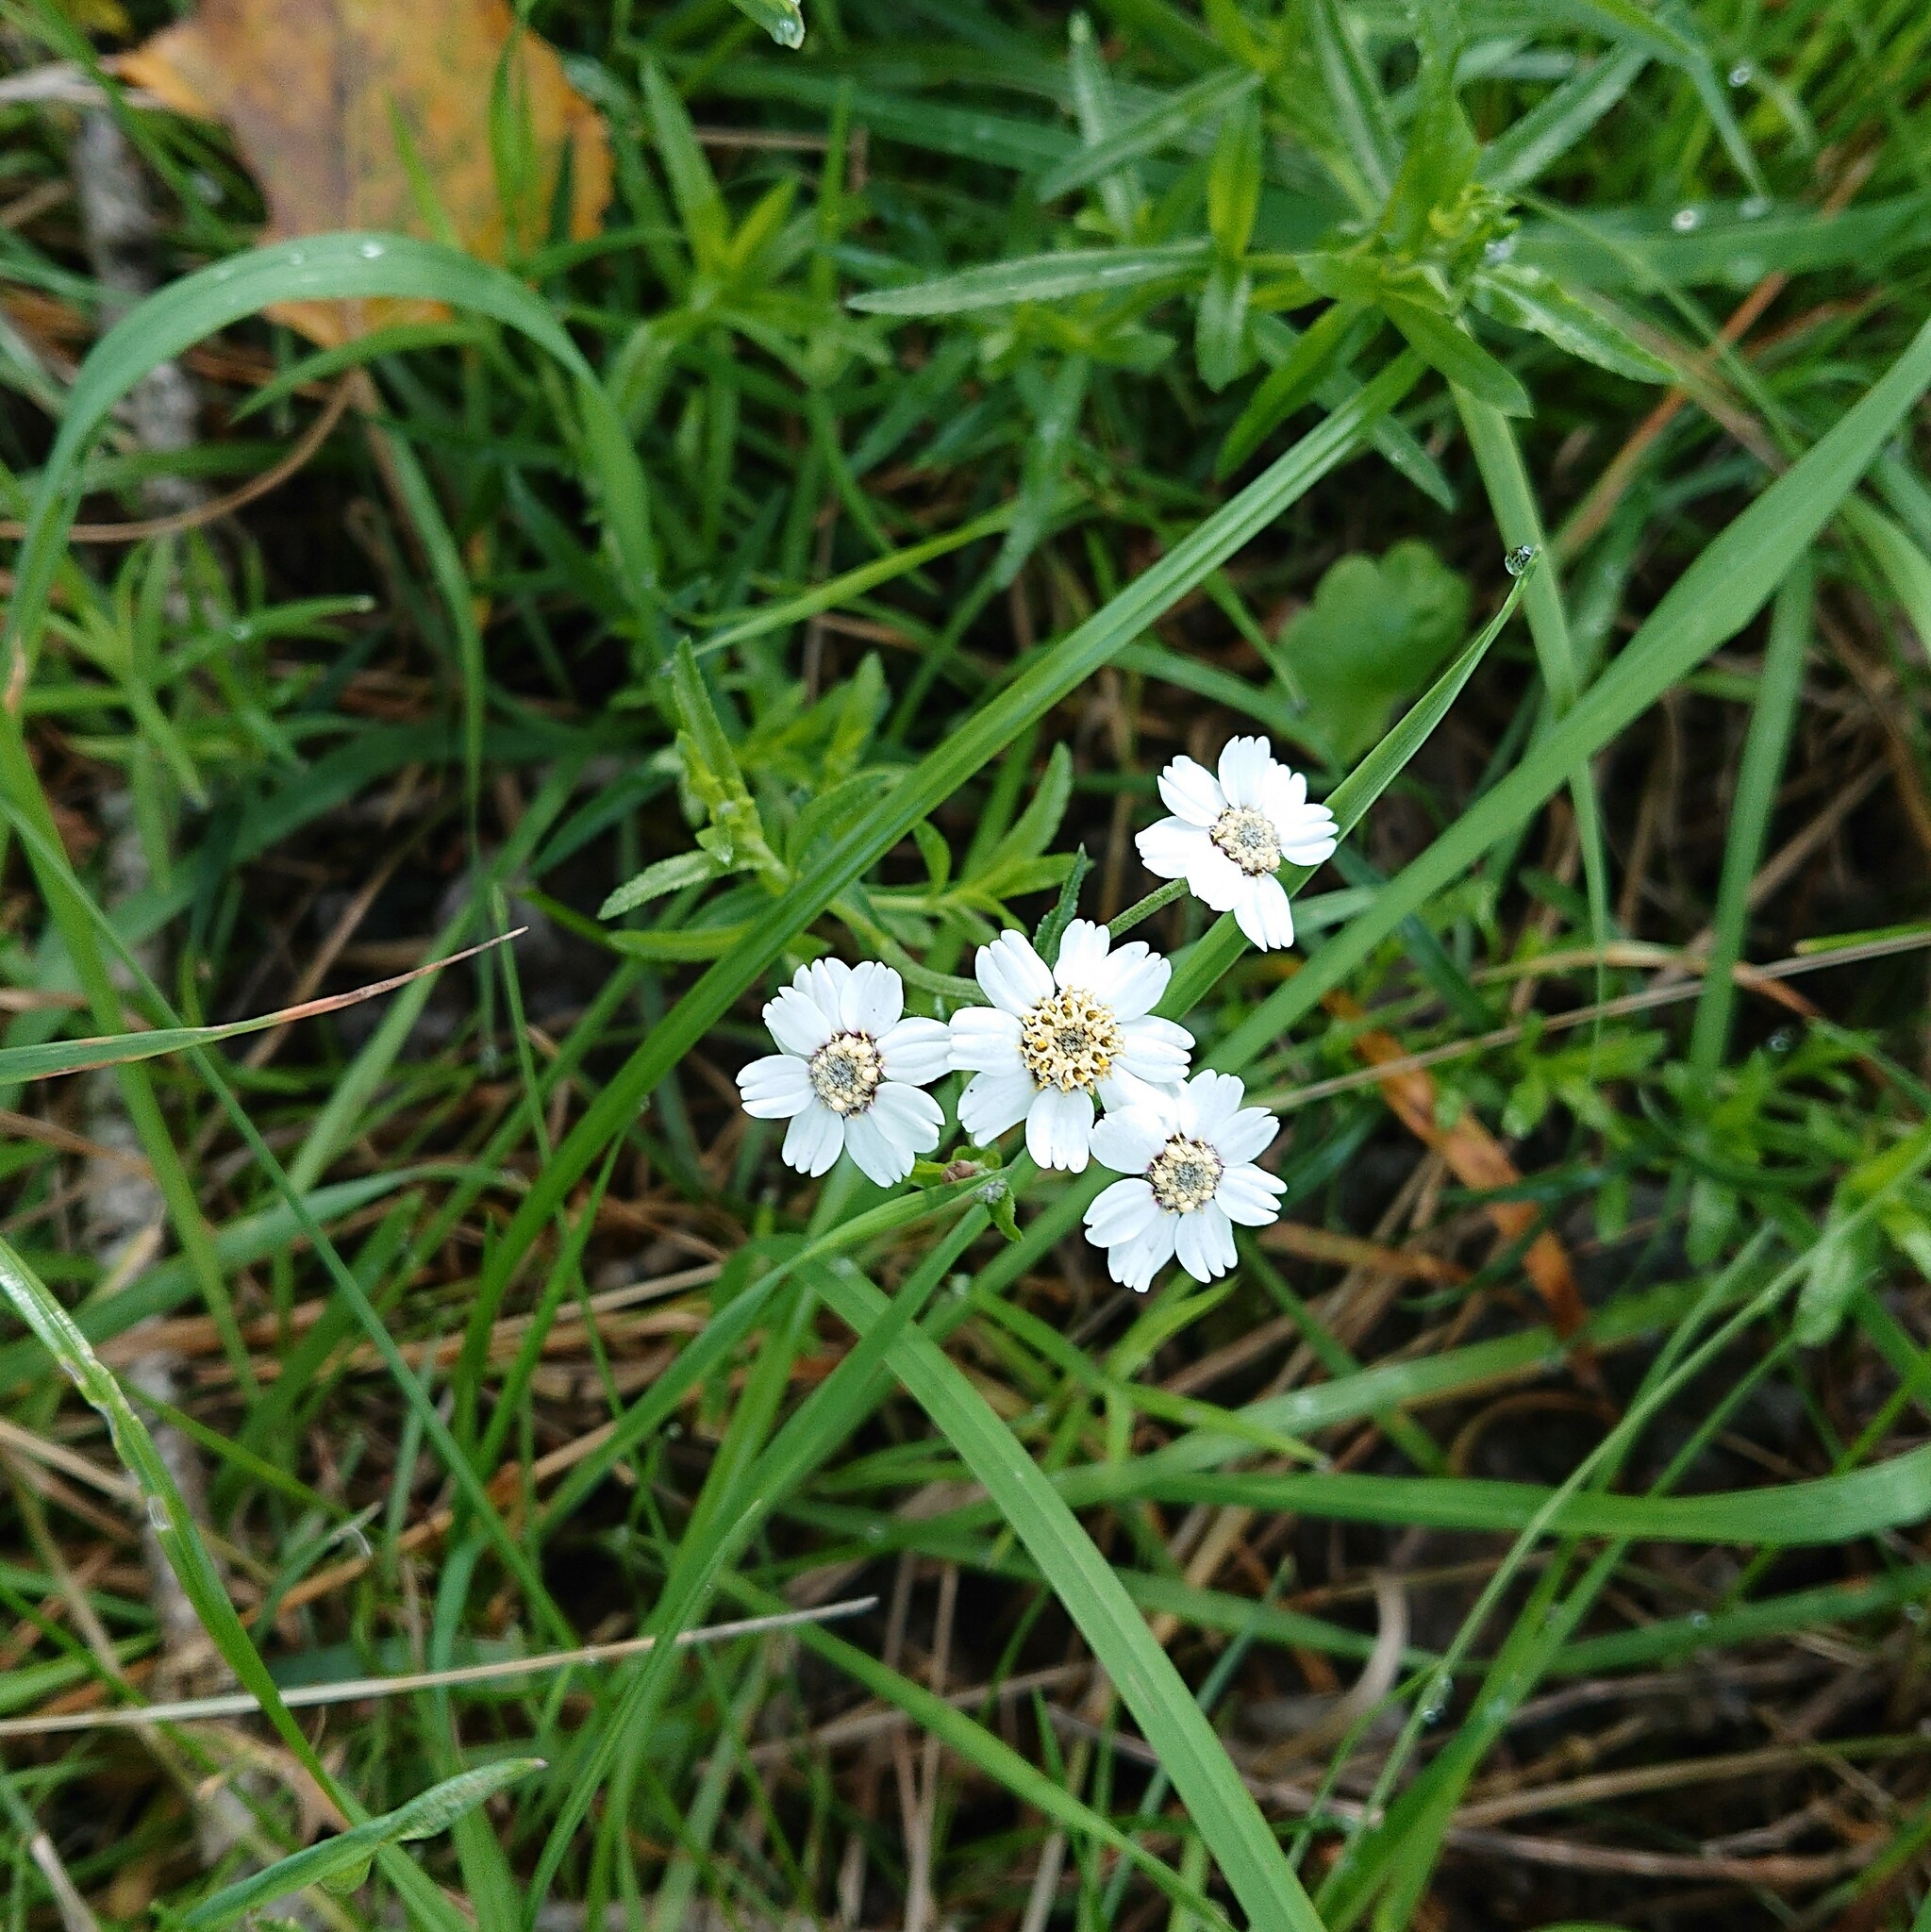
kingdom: Plantae
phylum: Tracheophyta
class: Magnoliopsida
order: Asterales
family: Asteraceae
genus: Achillea
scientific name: Achillea ptarmica
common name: Sneezeweed
